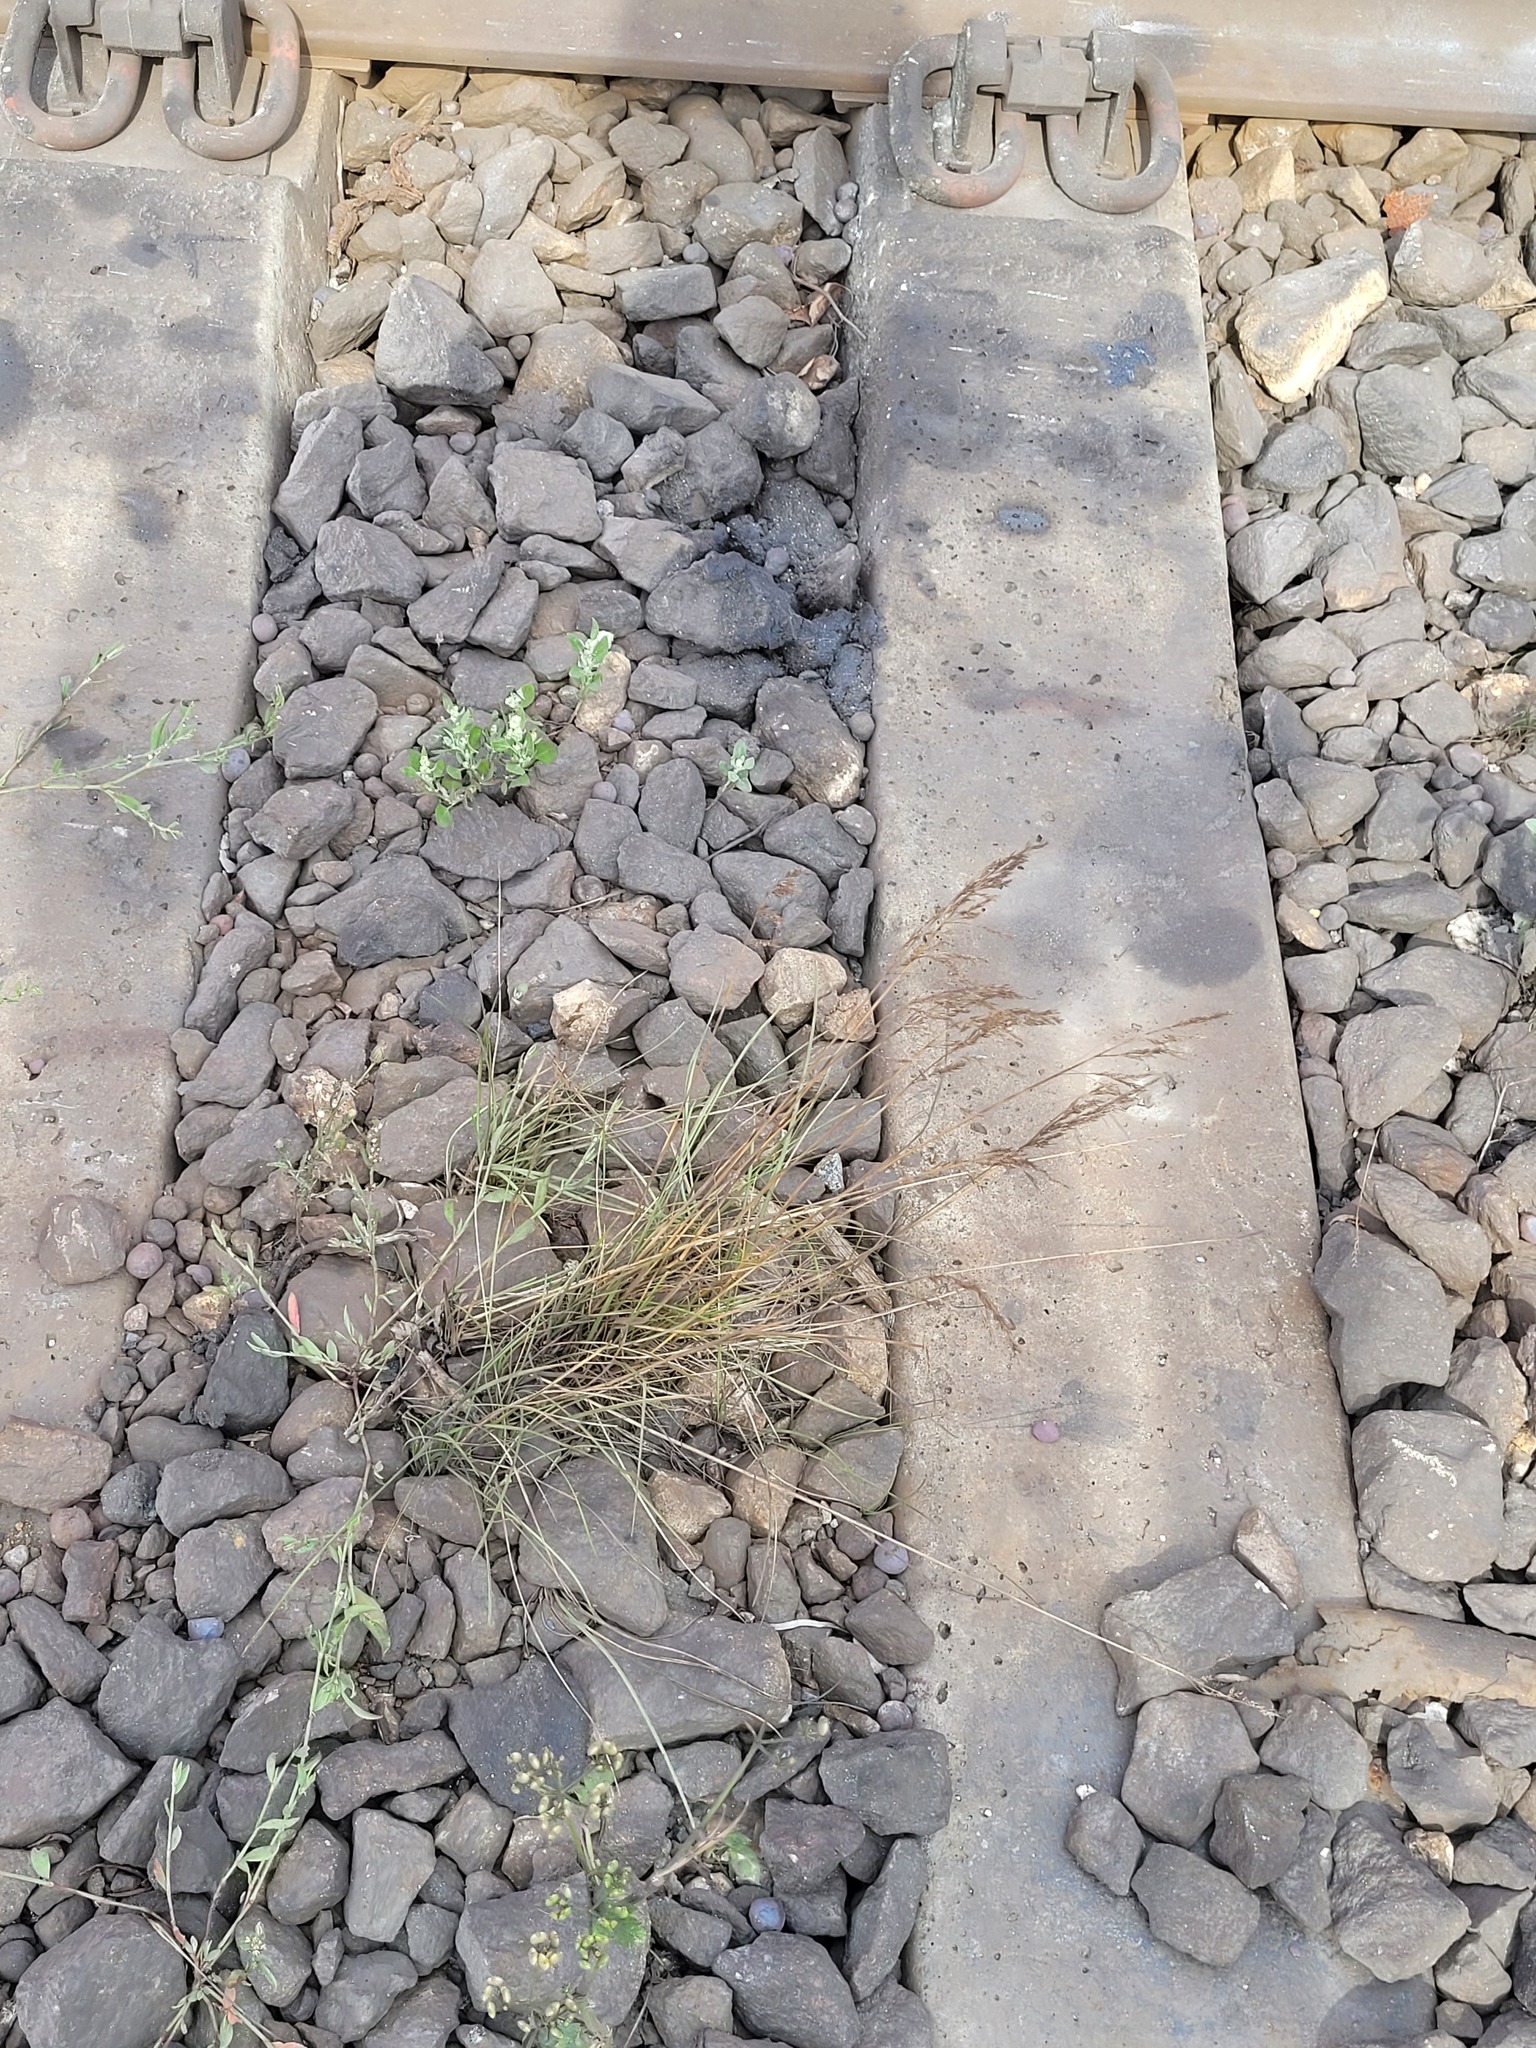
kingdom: Plantae
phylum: Tracheophyta
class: Liliopsida
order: Poales
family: Poaceae
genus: Festuca
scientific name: Festuca rubra
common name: Red fescue
